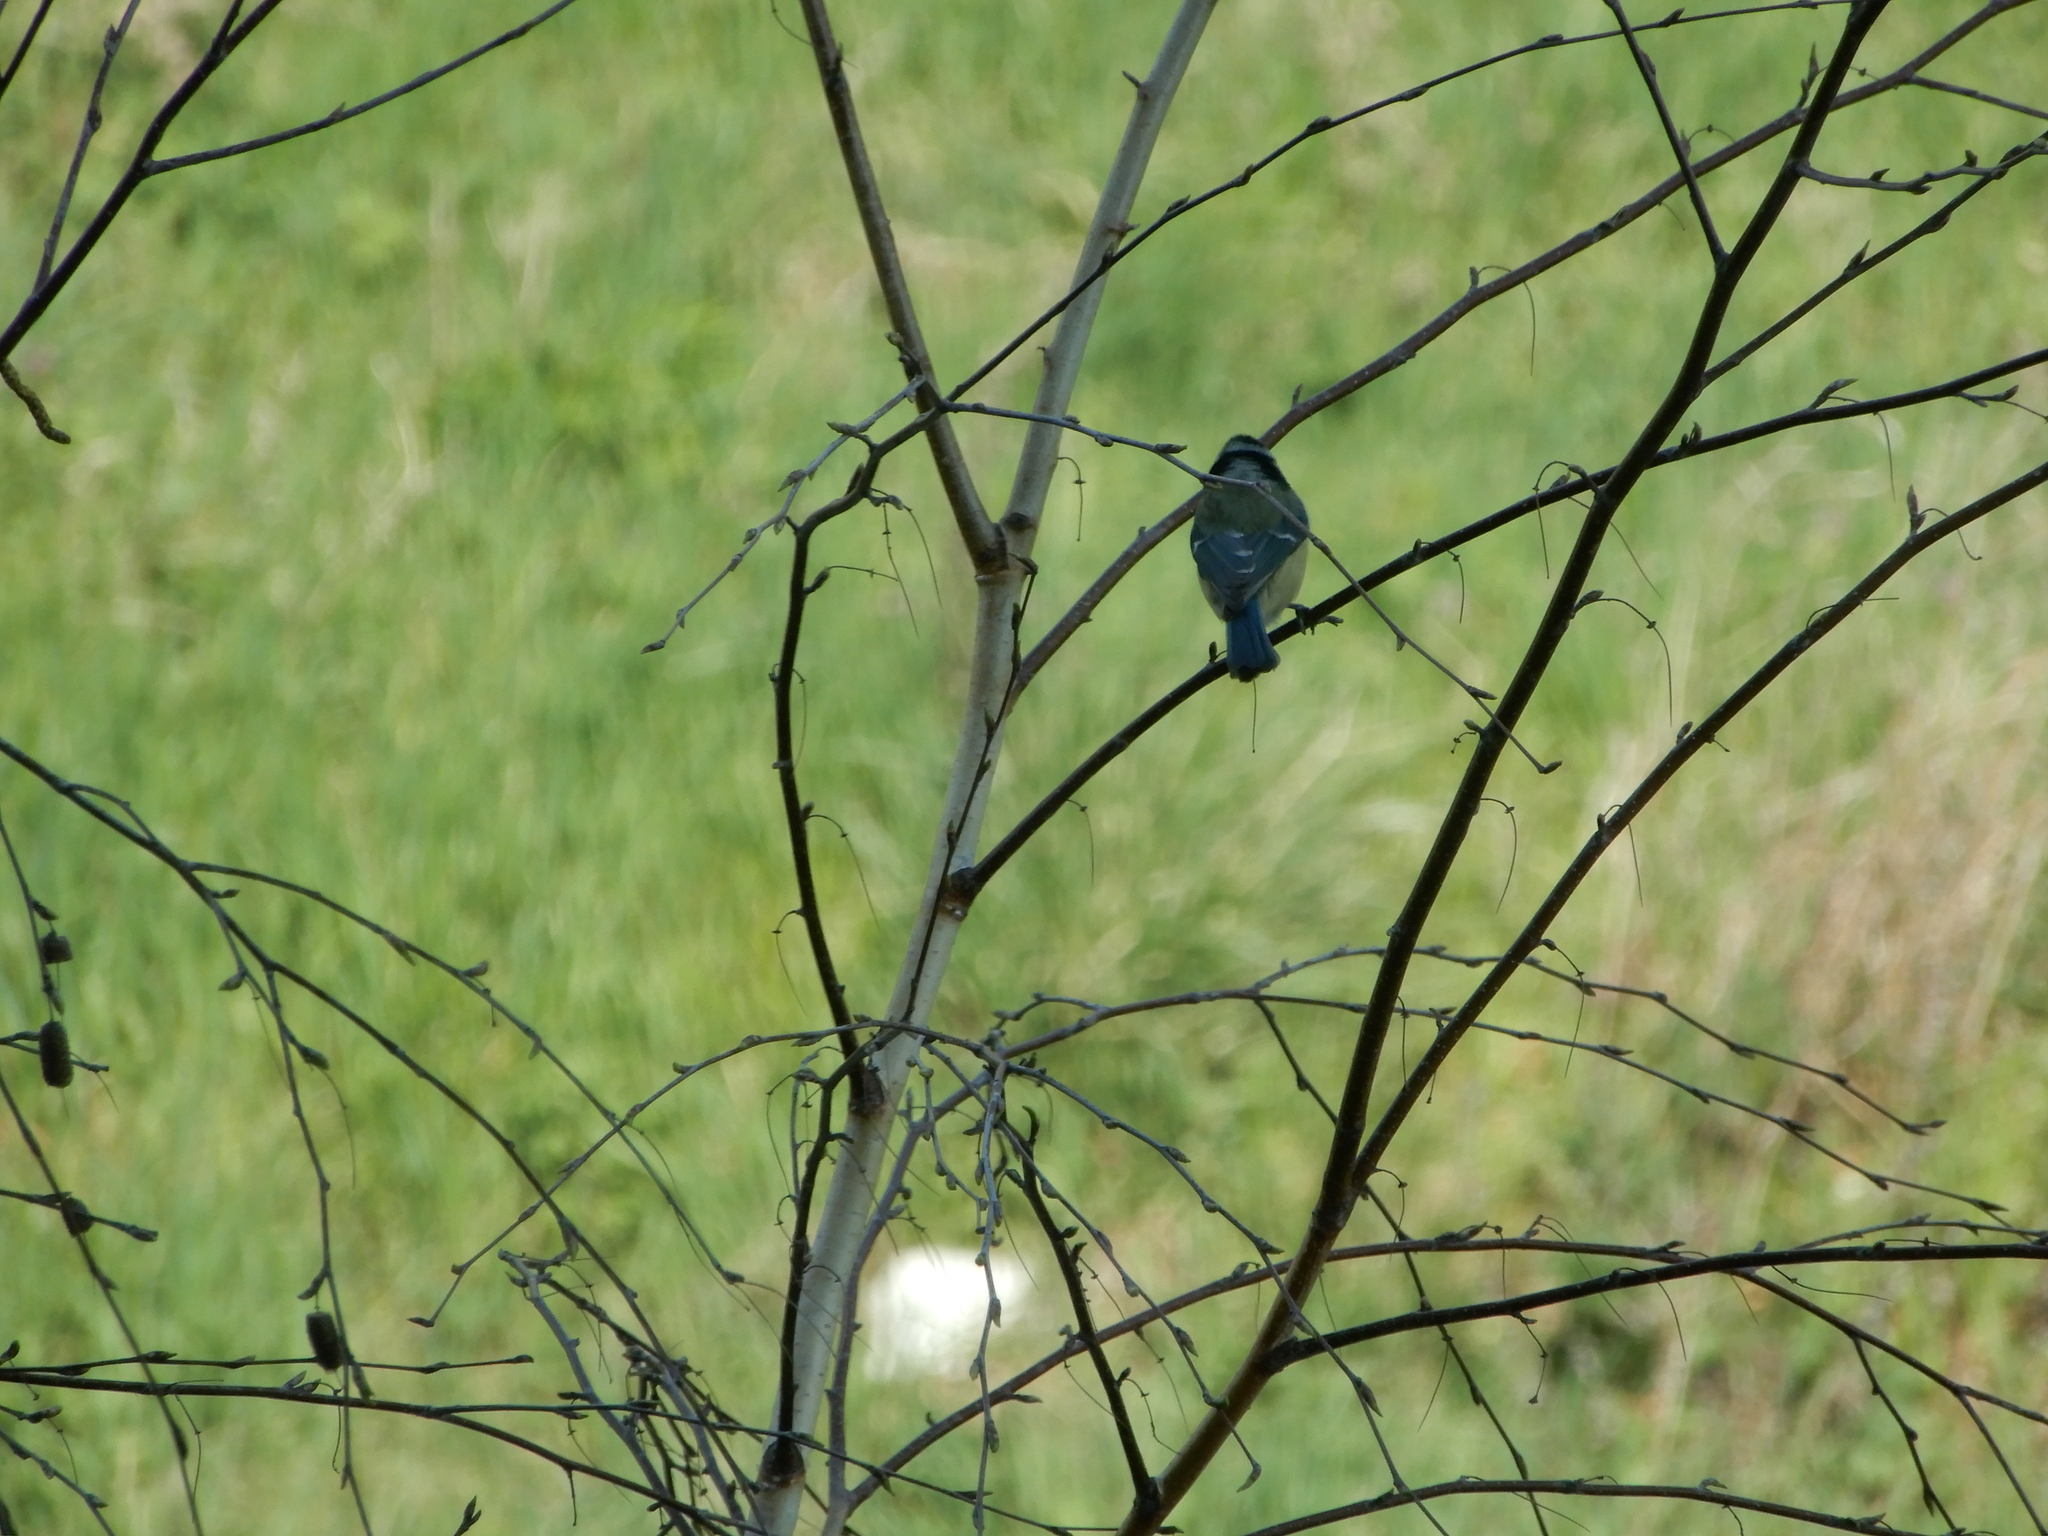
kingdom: Animalia
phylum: Chordata
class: Aves
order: Passeriformes
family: Paridae
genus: Cyanistes
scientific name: Cyanistes caeruleus
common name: Eurasian blue tit
